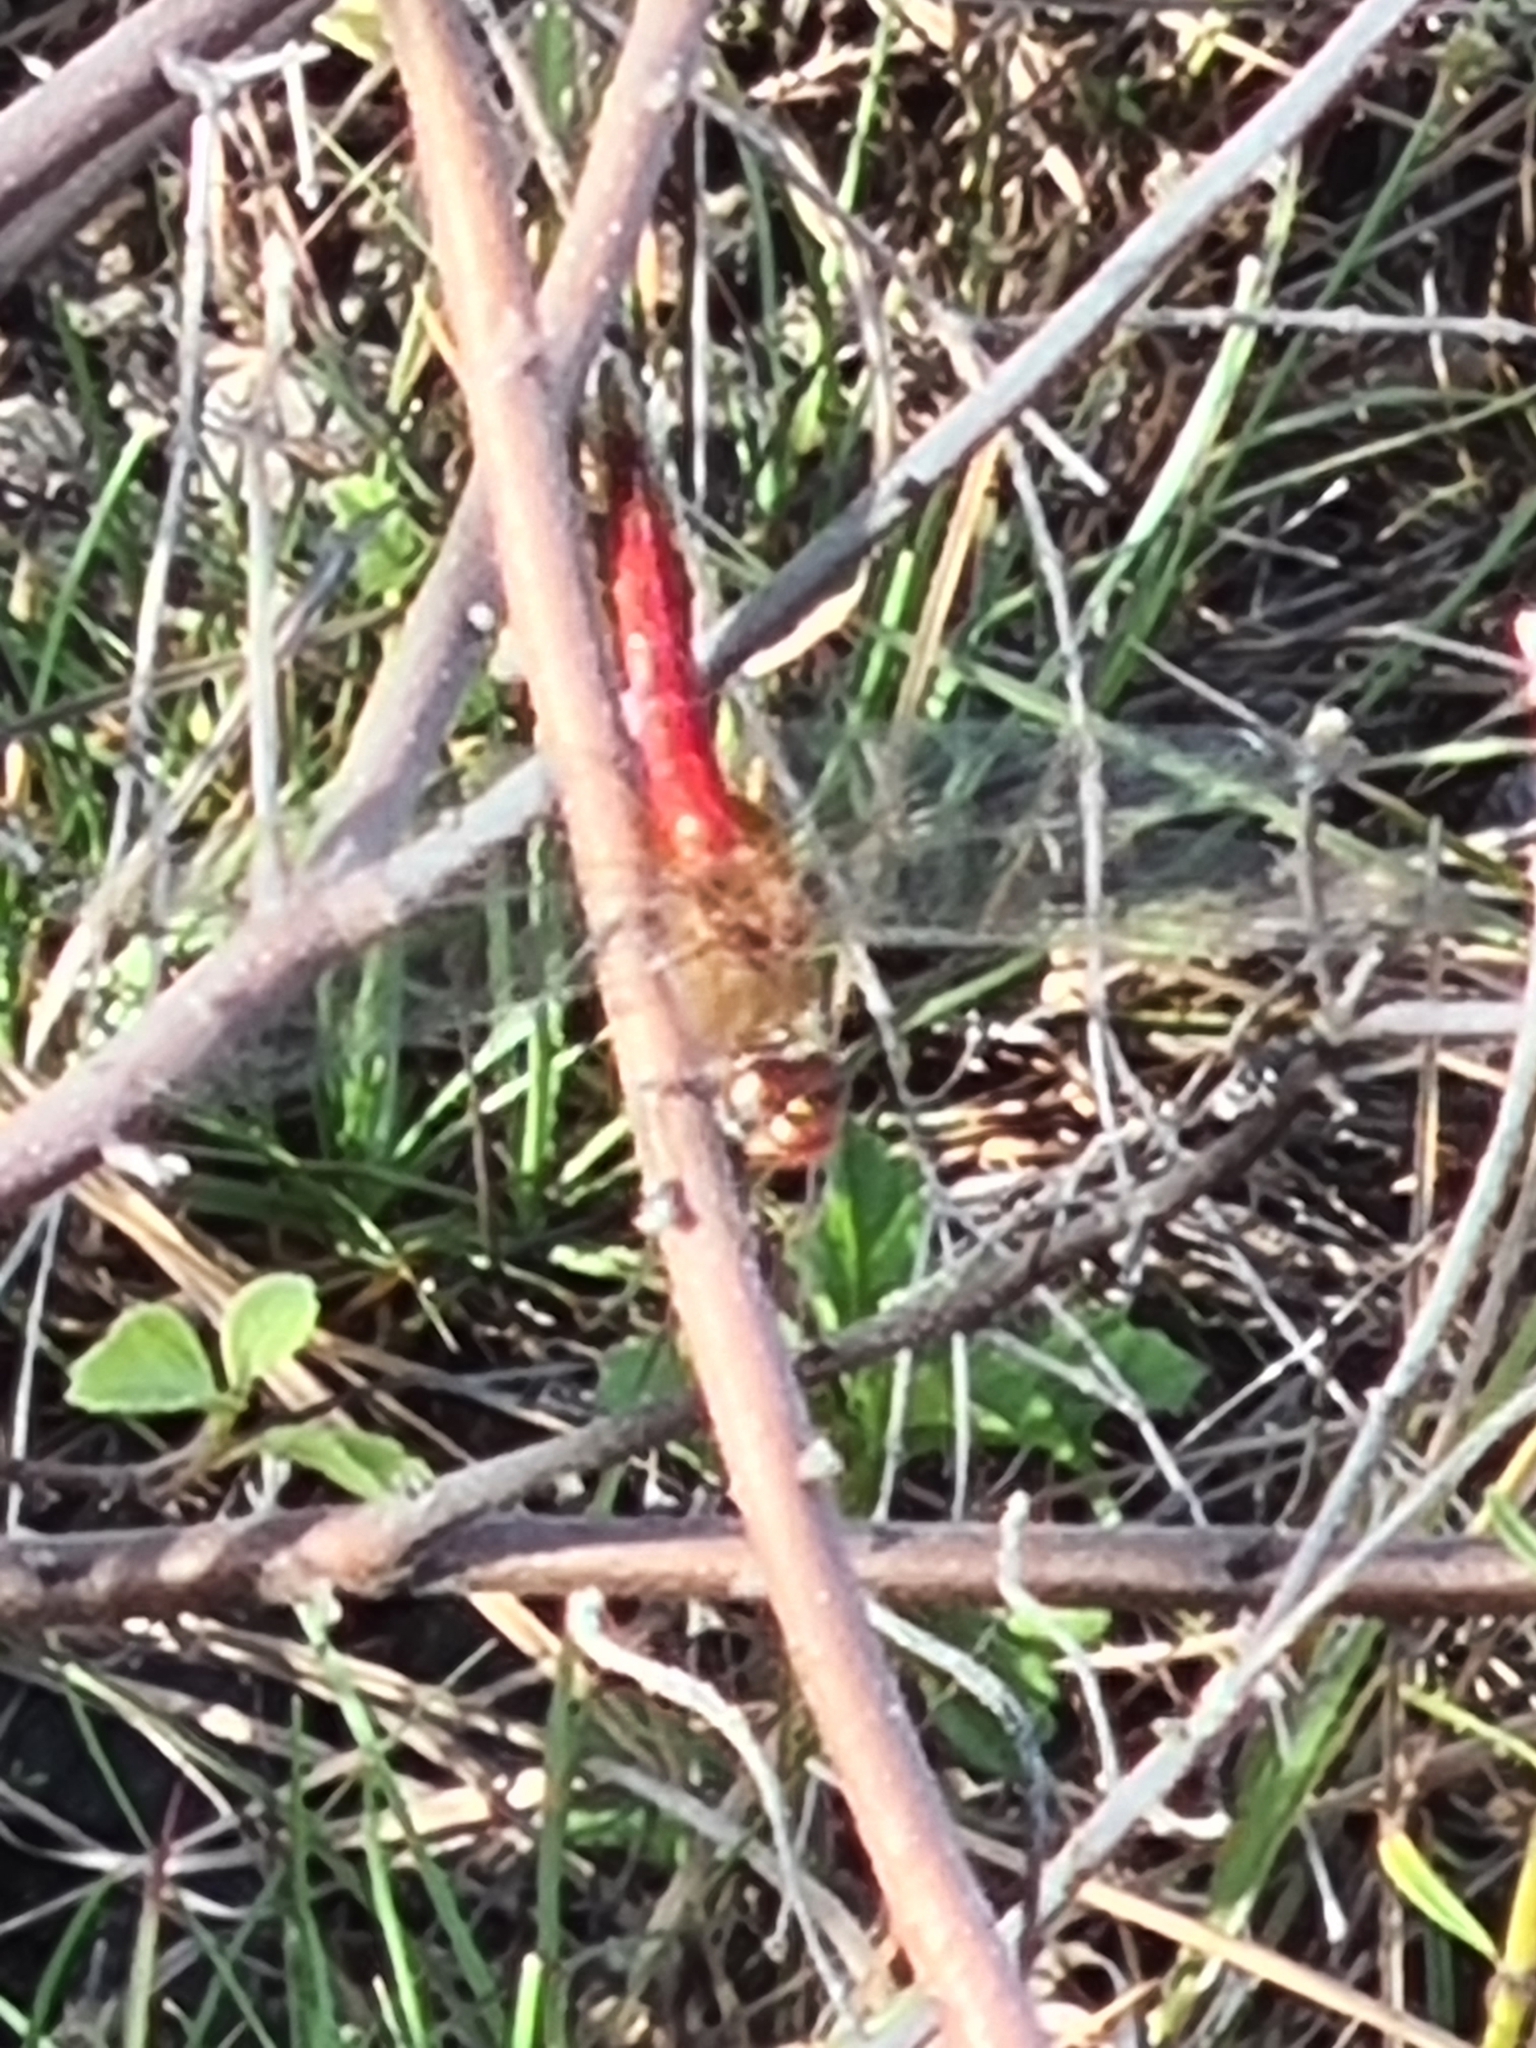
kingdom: Animalia
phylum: Arthropoda
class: Insecta
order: Odonata
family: Libellulidae
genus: Brachymesia
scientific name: Brachymesia furcata
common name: Red-taled pennant
